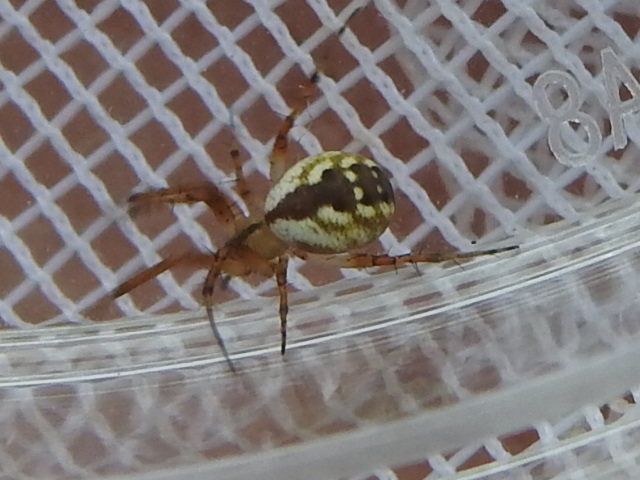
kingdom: Animalia
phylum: Arthropoda
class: Arachnida
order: Araneae
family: Araneidae
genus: Mangora
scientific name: Mangora placida
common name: Tuft-legged orbweaver
